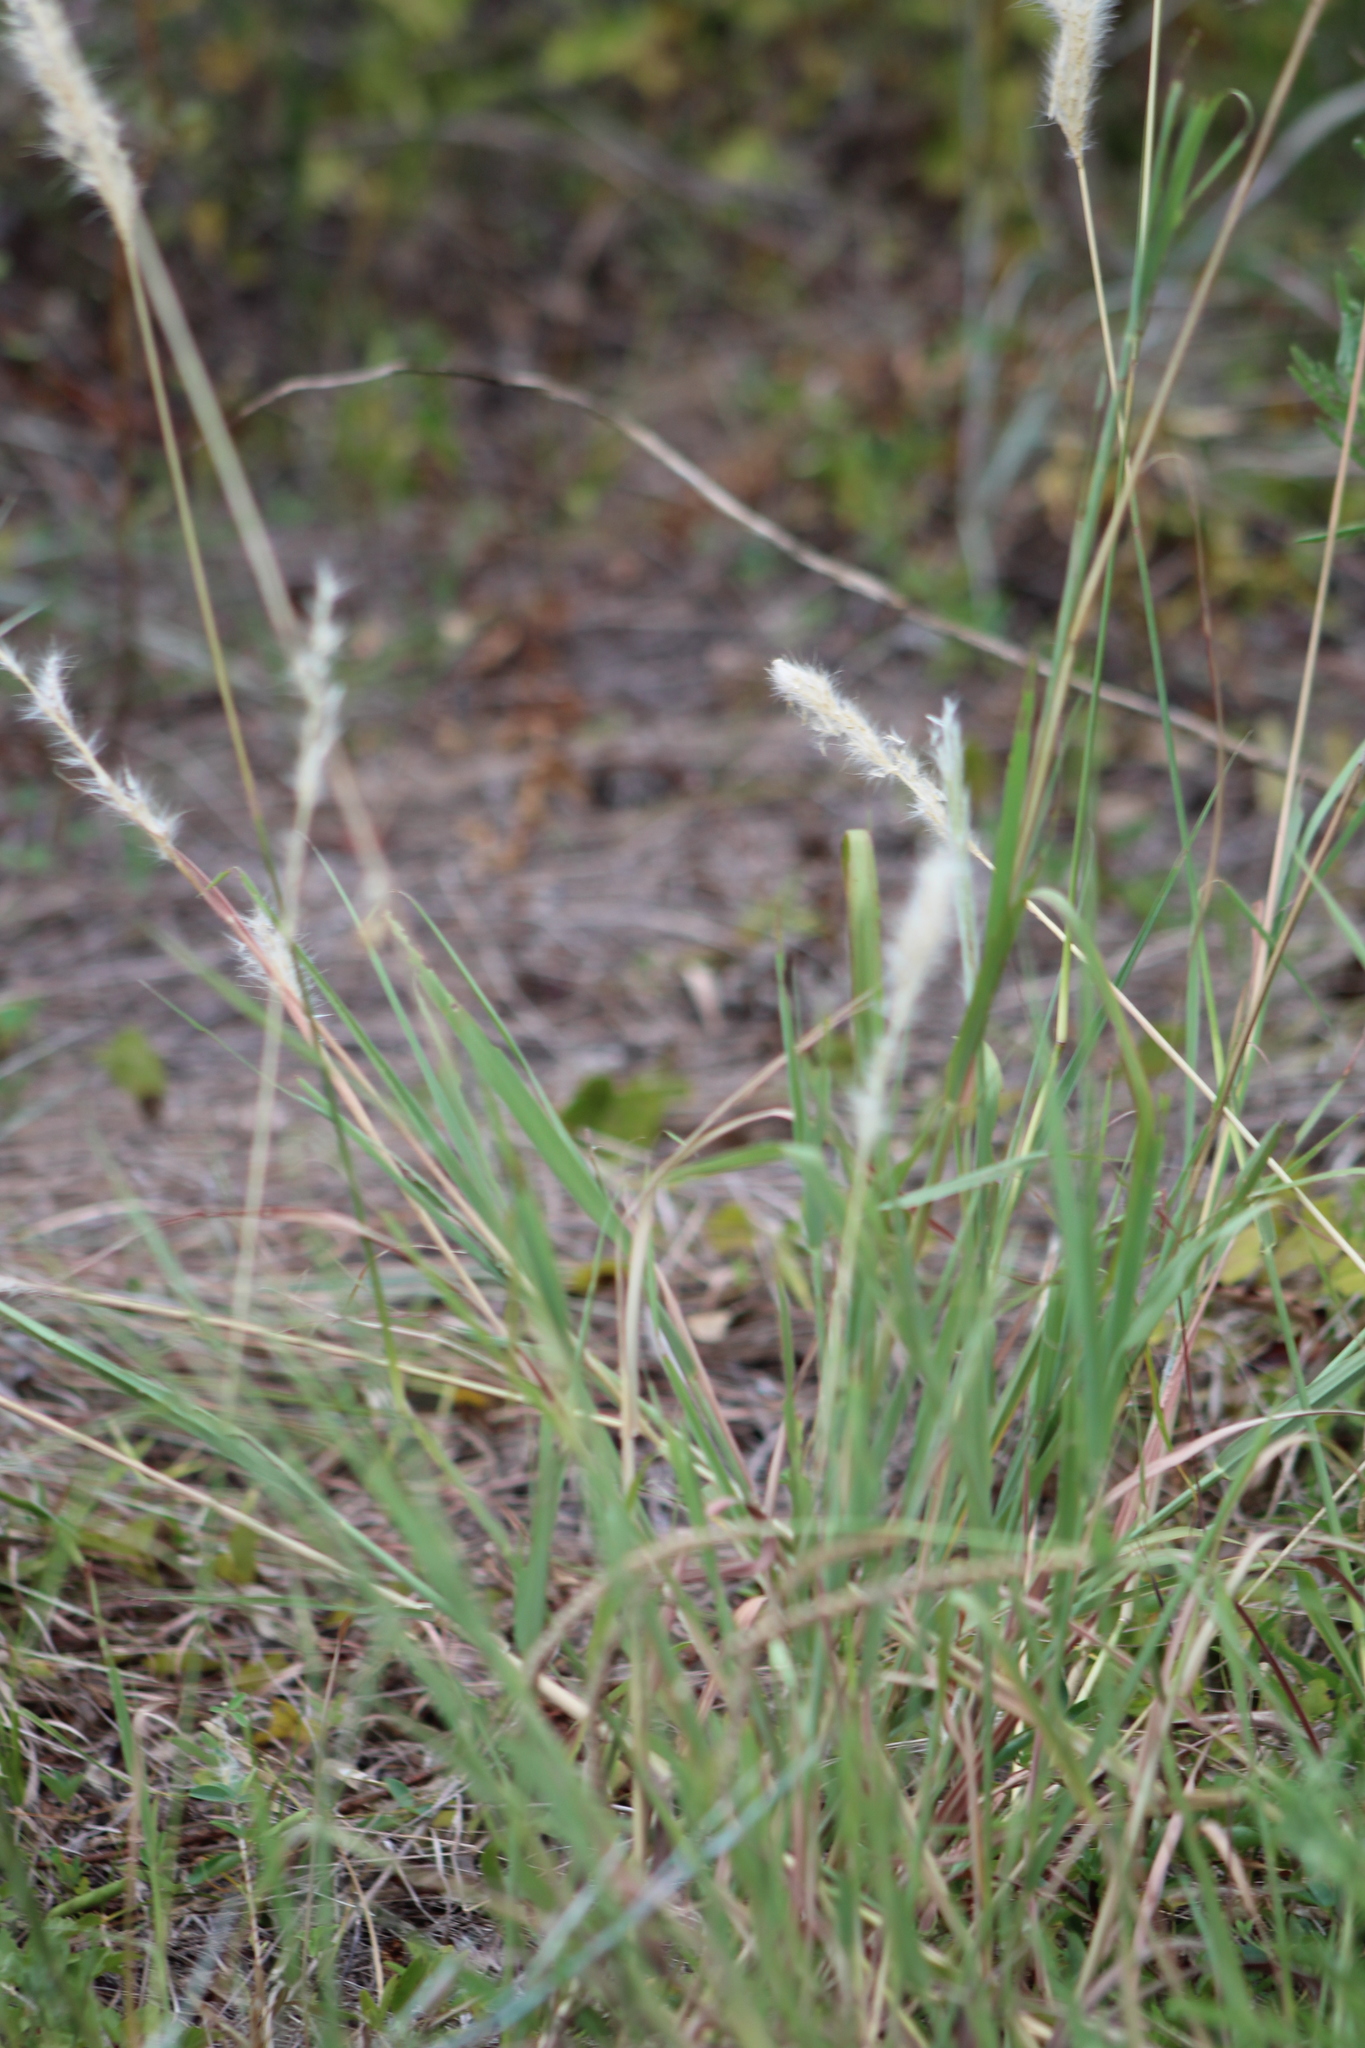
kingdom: Plantae
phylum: Tracheophyta
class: Liliopsida
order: Poales
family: Poaceae
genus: Bothriochloa
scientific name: Bothriochloa torreyana
